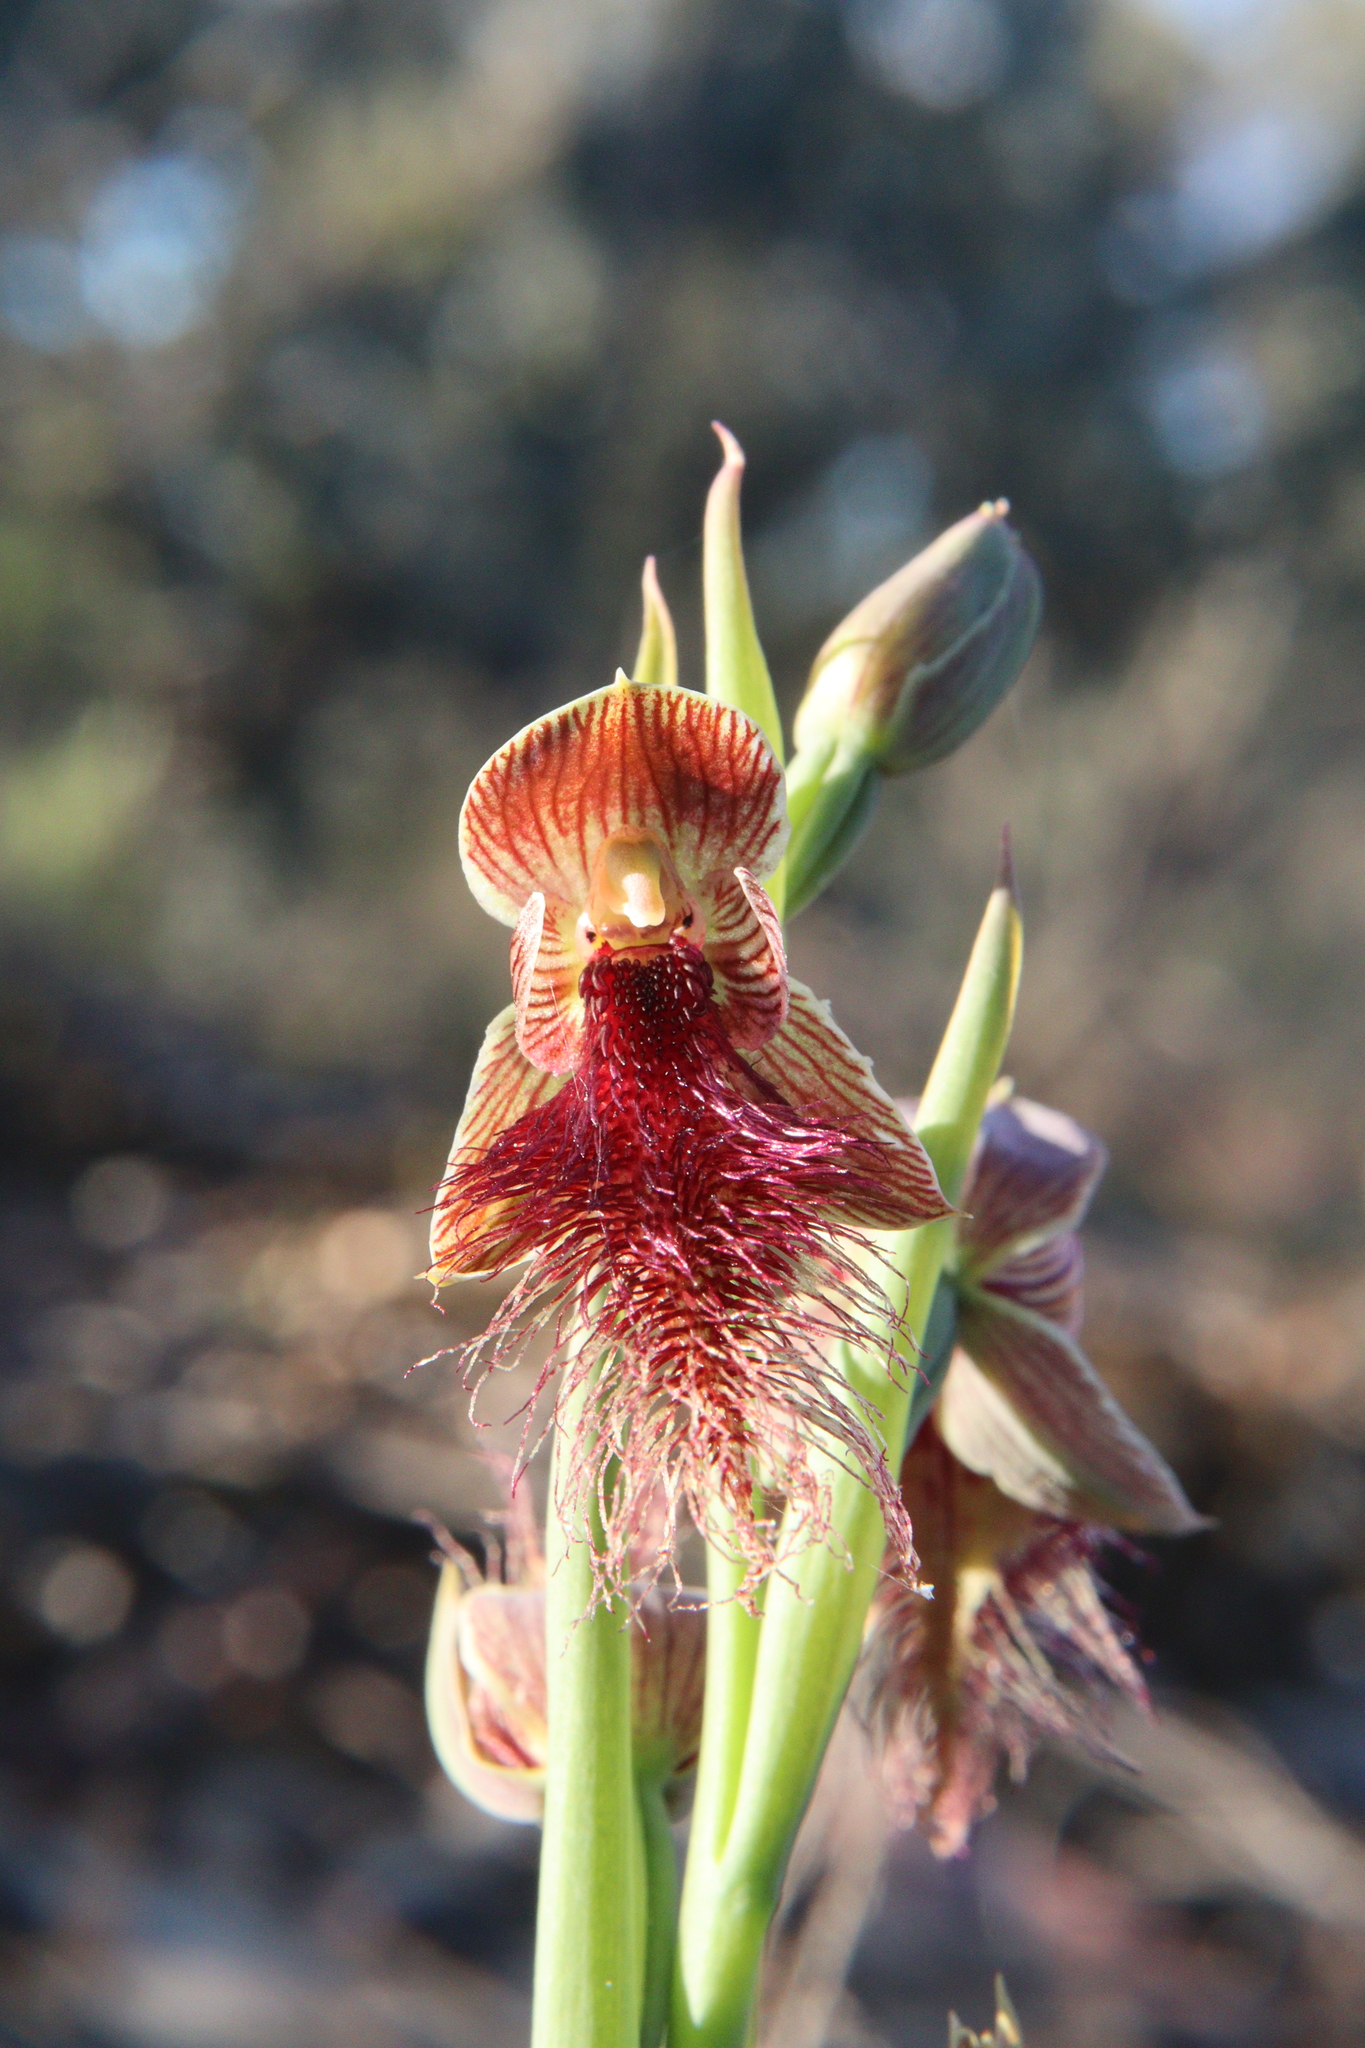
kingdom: Plantae
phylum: Tracheophyta
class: Liliopsida
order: Asparagales
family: Orchidaceae
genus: Calochilus
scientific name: Calochilus robertsonii
